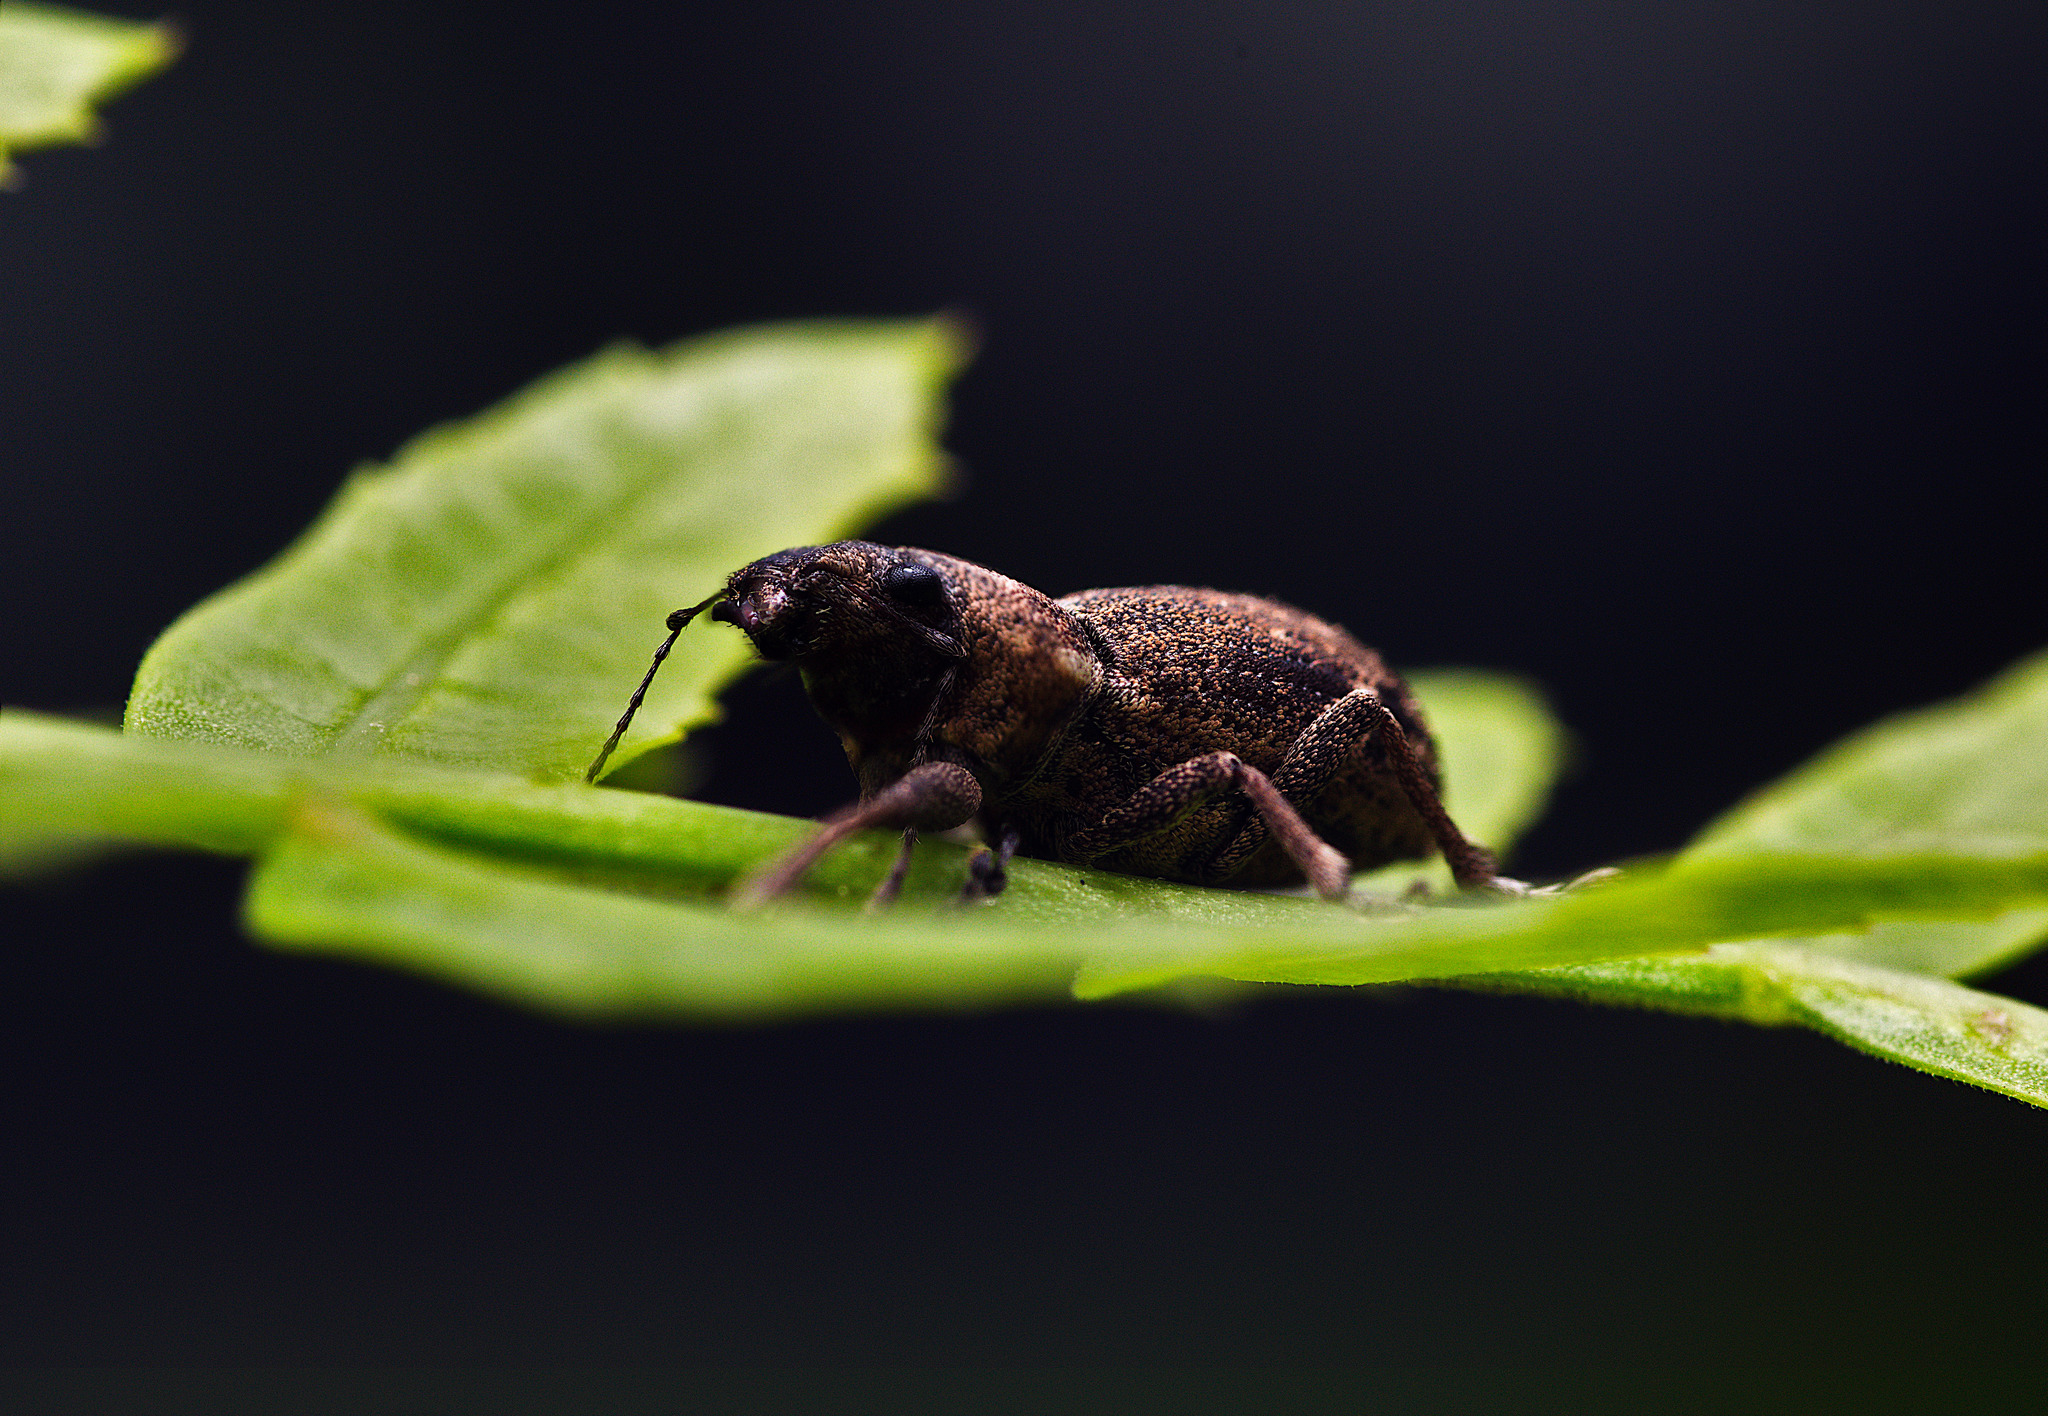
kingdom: Animalia
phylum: Arthropoda
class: Insecta
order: Coleoptera
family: Curculionidae
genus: Naupactus
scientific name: Naupactus cervinus
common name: Fuller rose beetle
